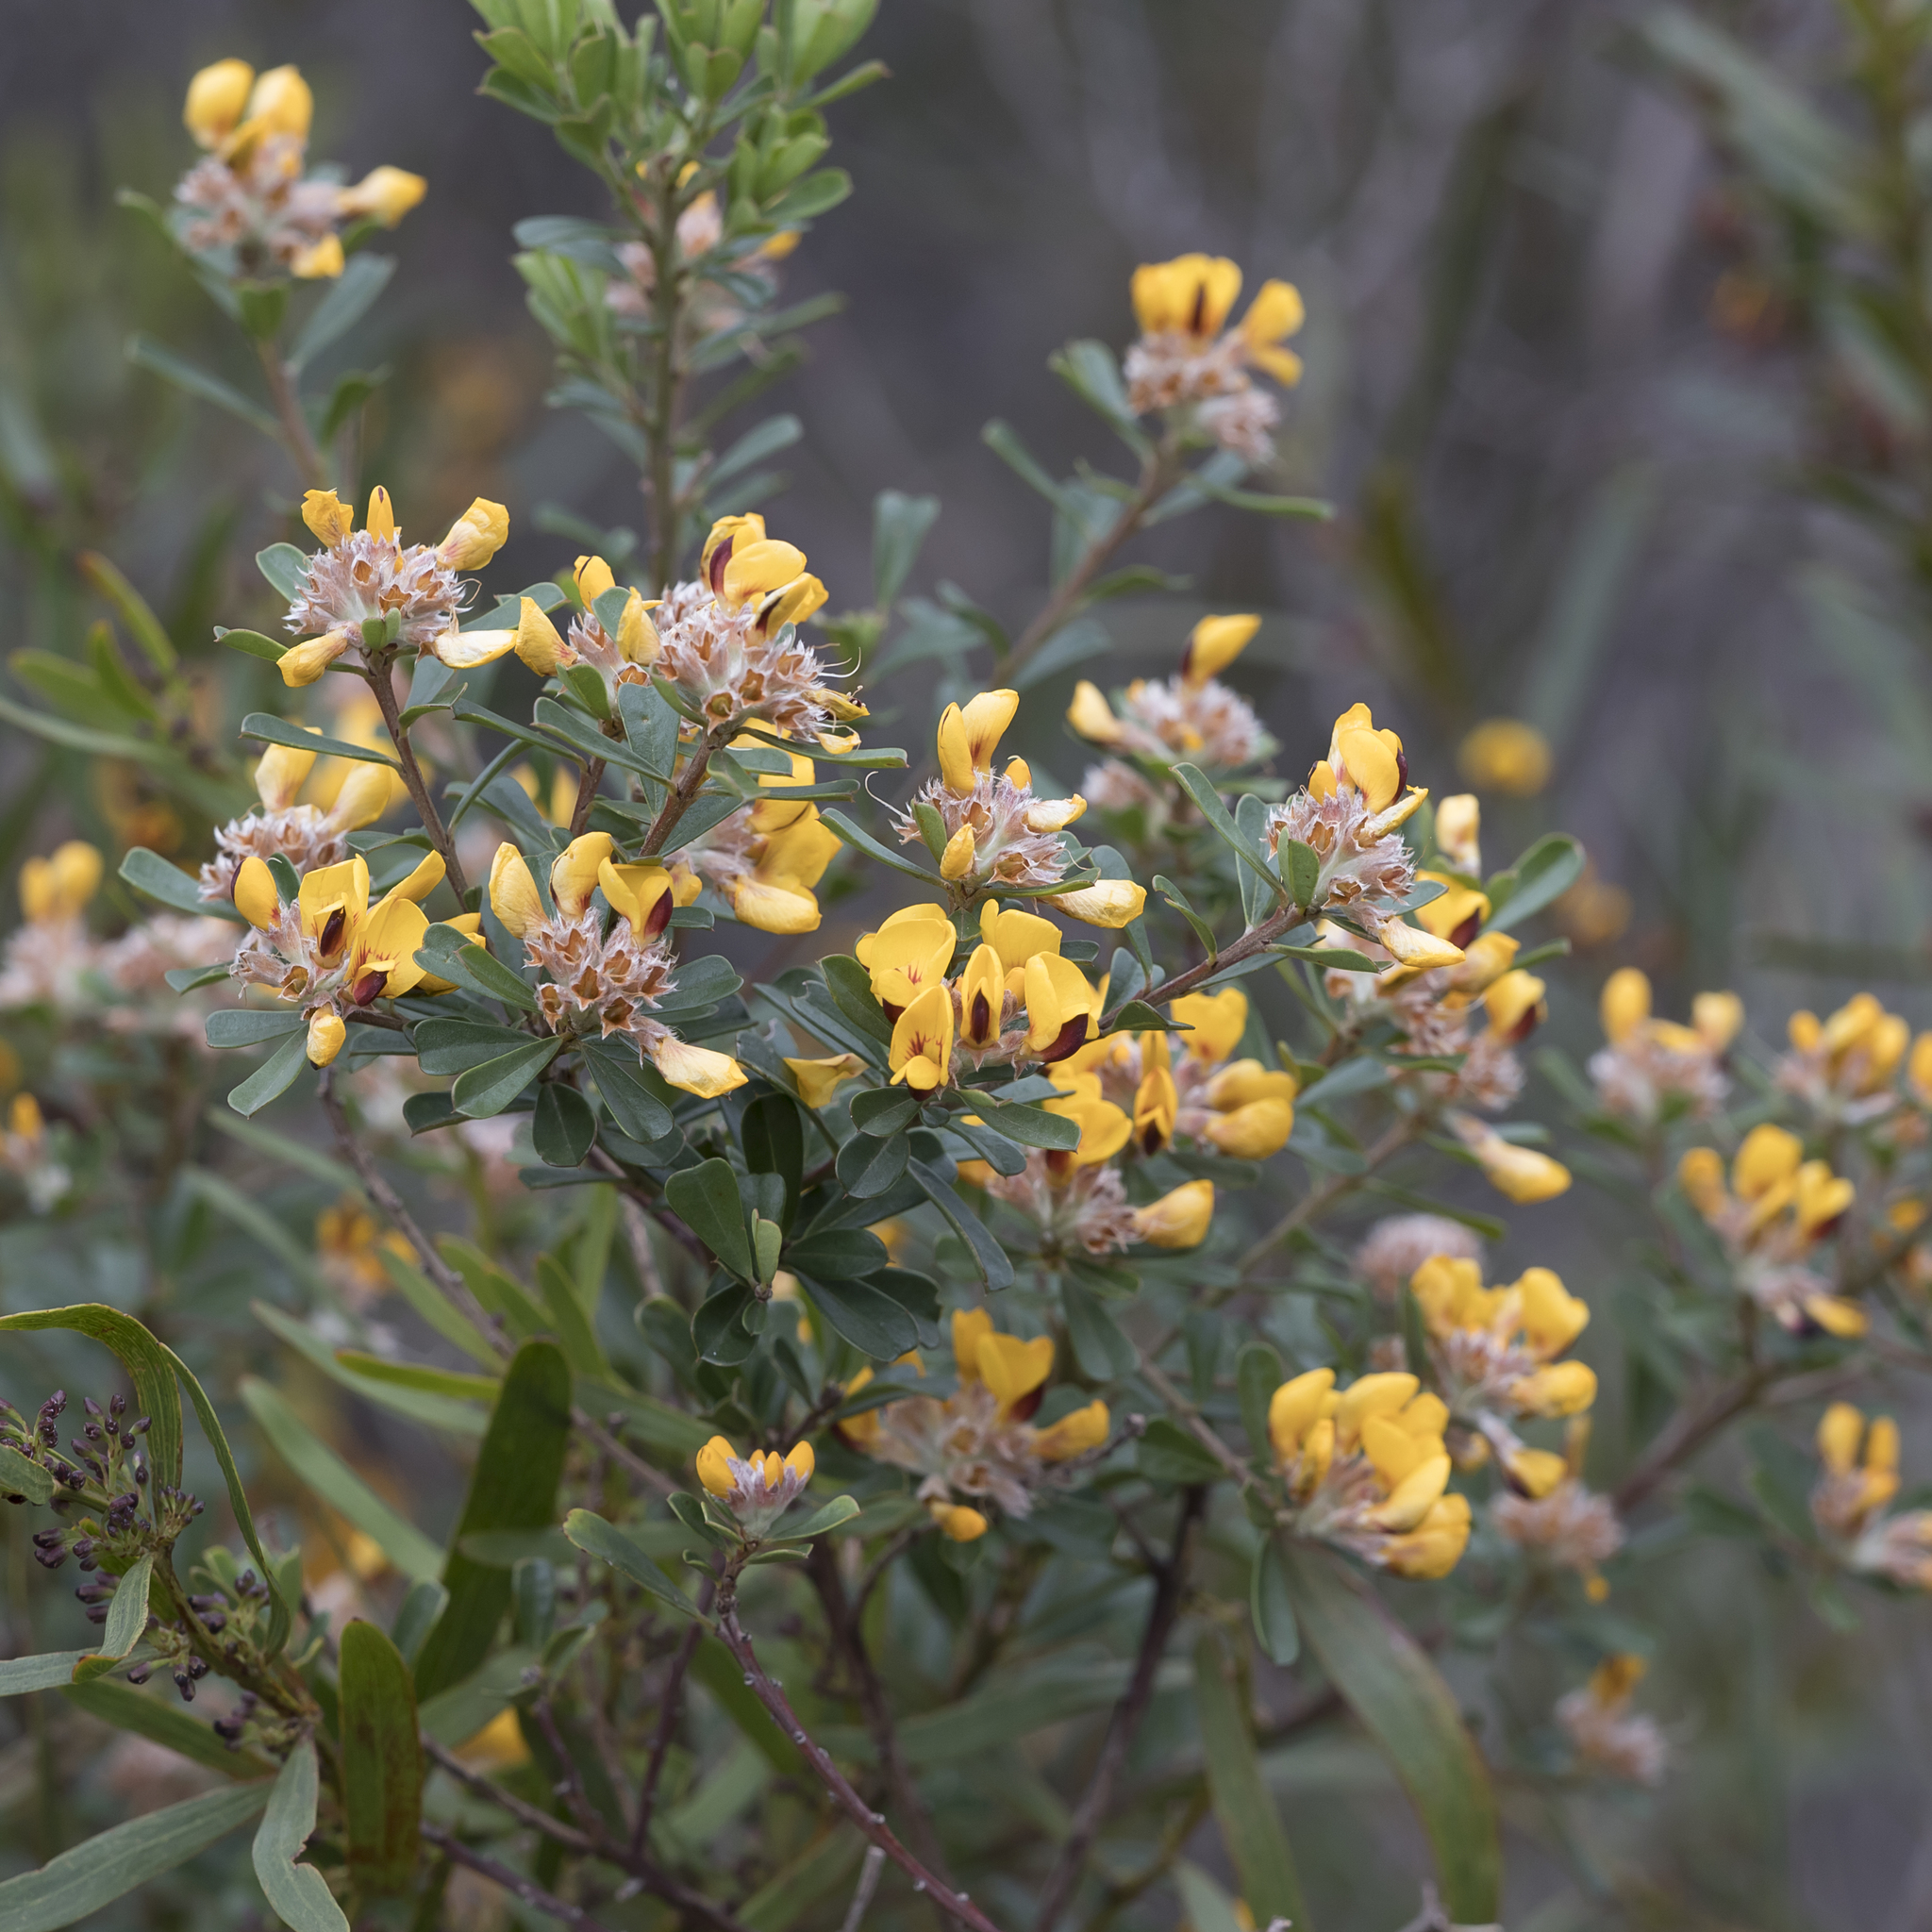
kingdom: Plantae
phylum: Tracheophyta
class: Magnoliopsida
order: Fabales
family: Fabaceae
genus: Pultenaea
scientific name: Pultenaea daphnoides
